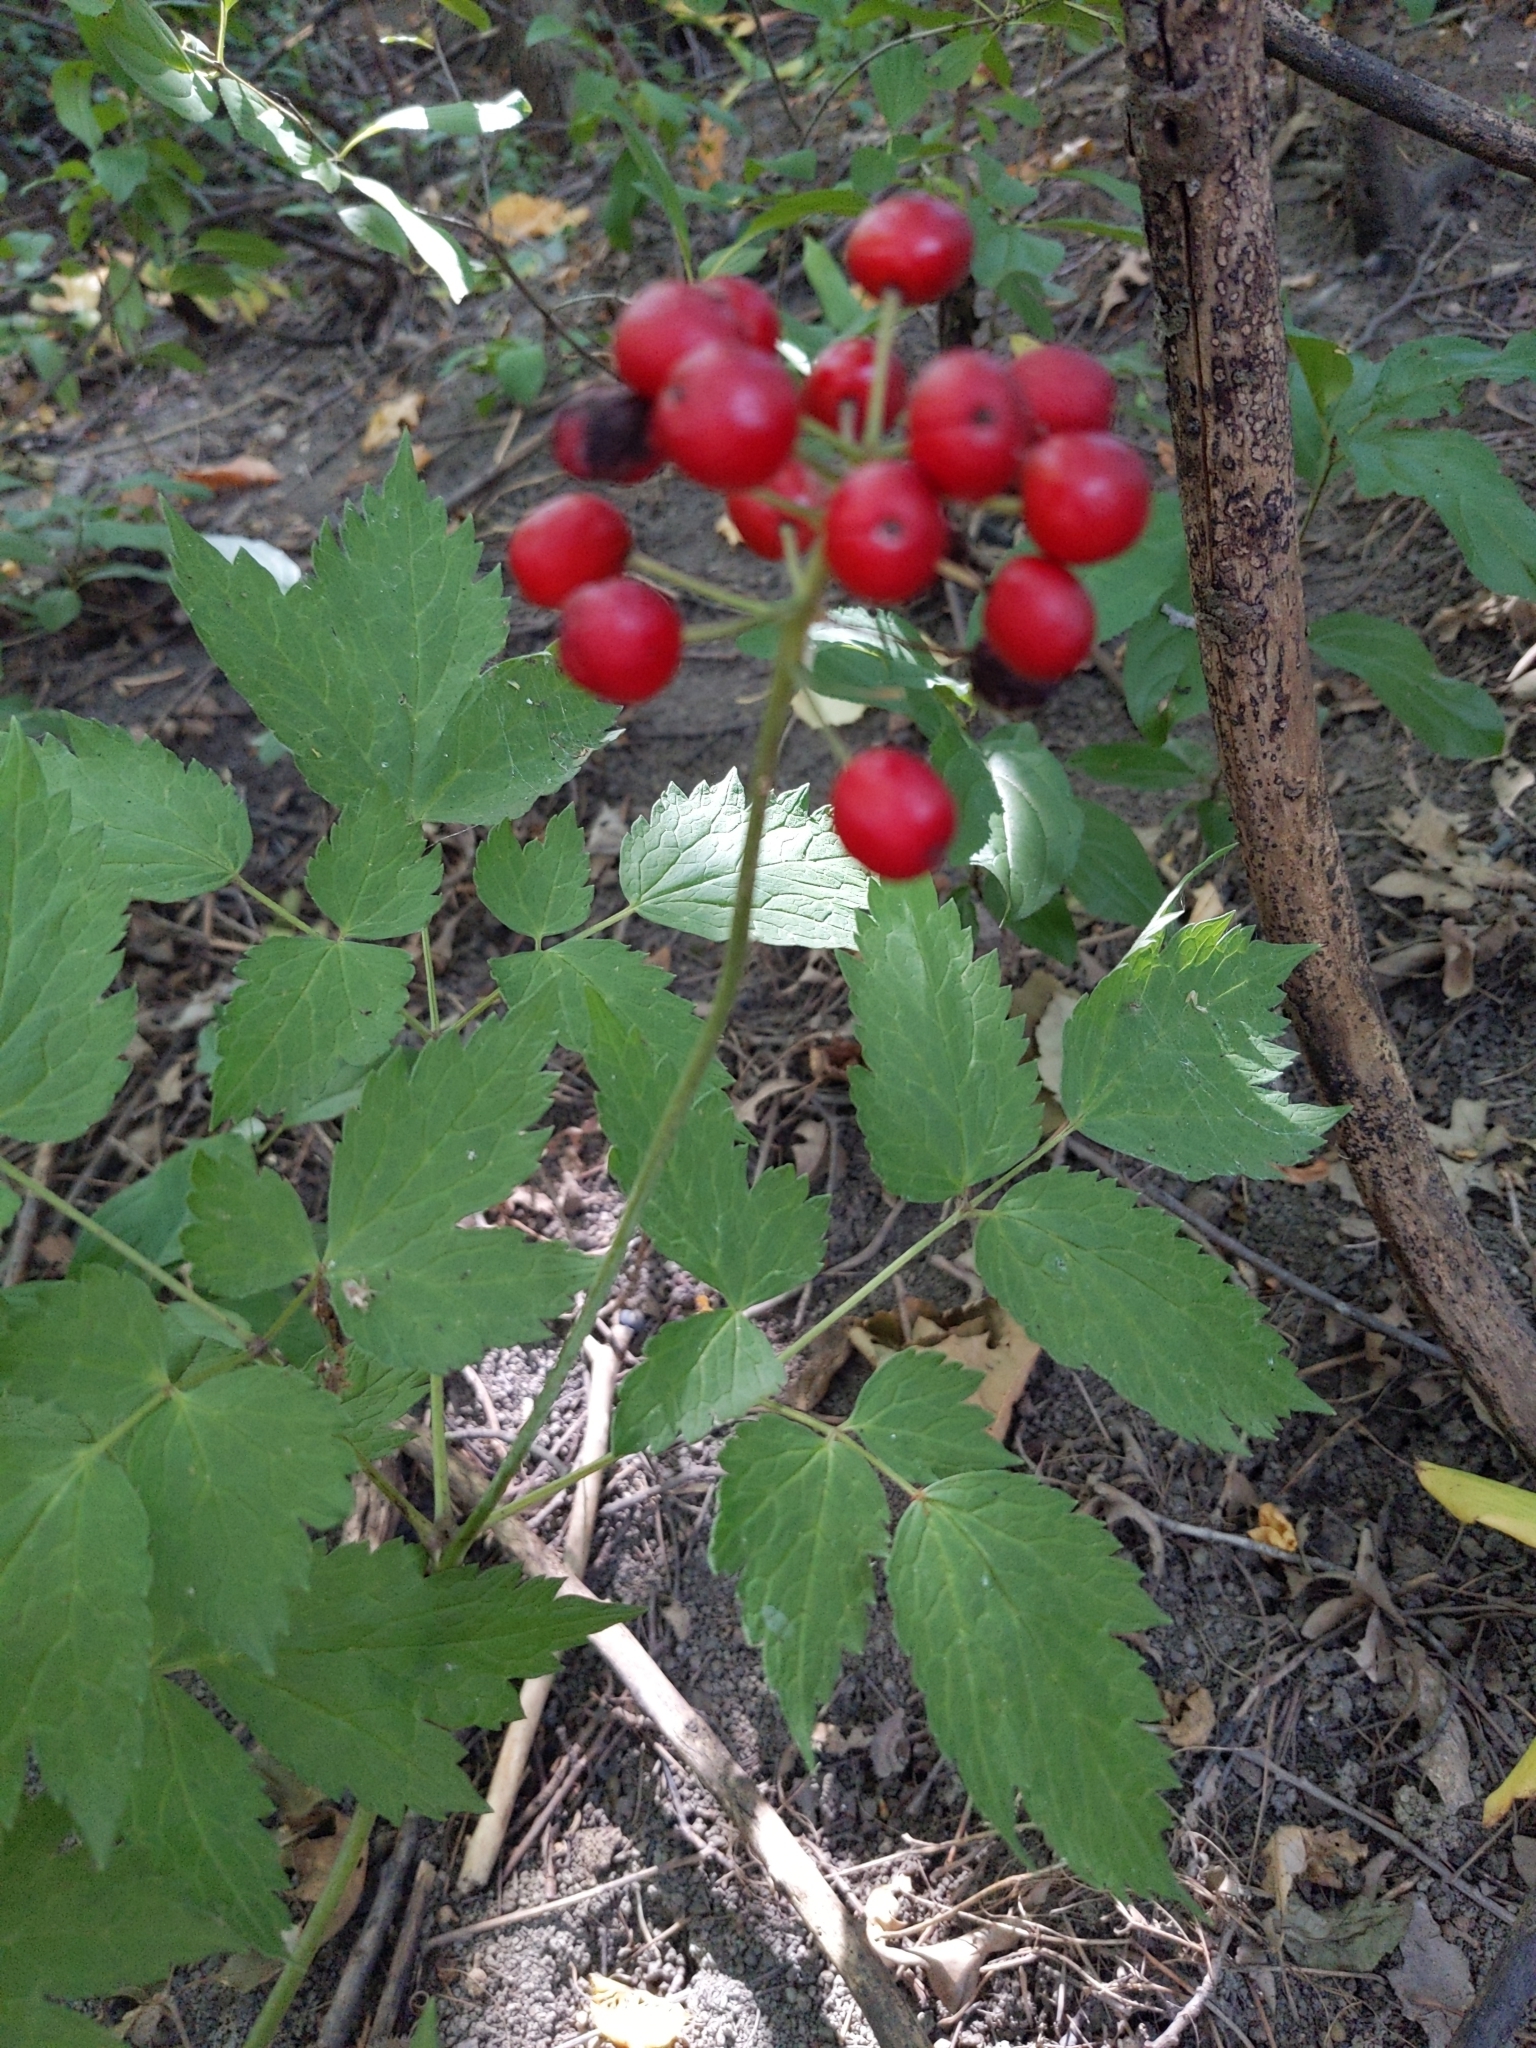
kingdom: Plantae
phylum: Tracheophyta
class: Magnoliopsida
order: Ranunculales
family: Ranunculaceae
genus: Actaea
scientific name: Actaea rubra
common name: Red baneberry
